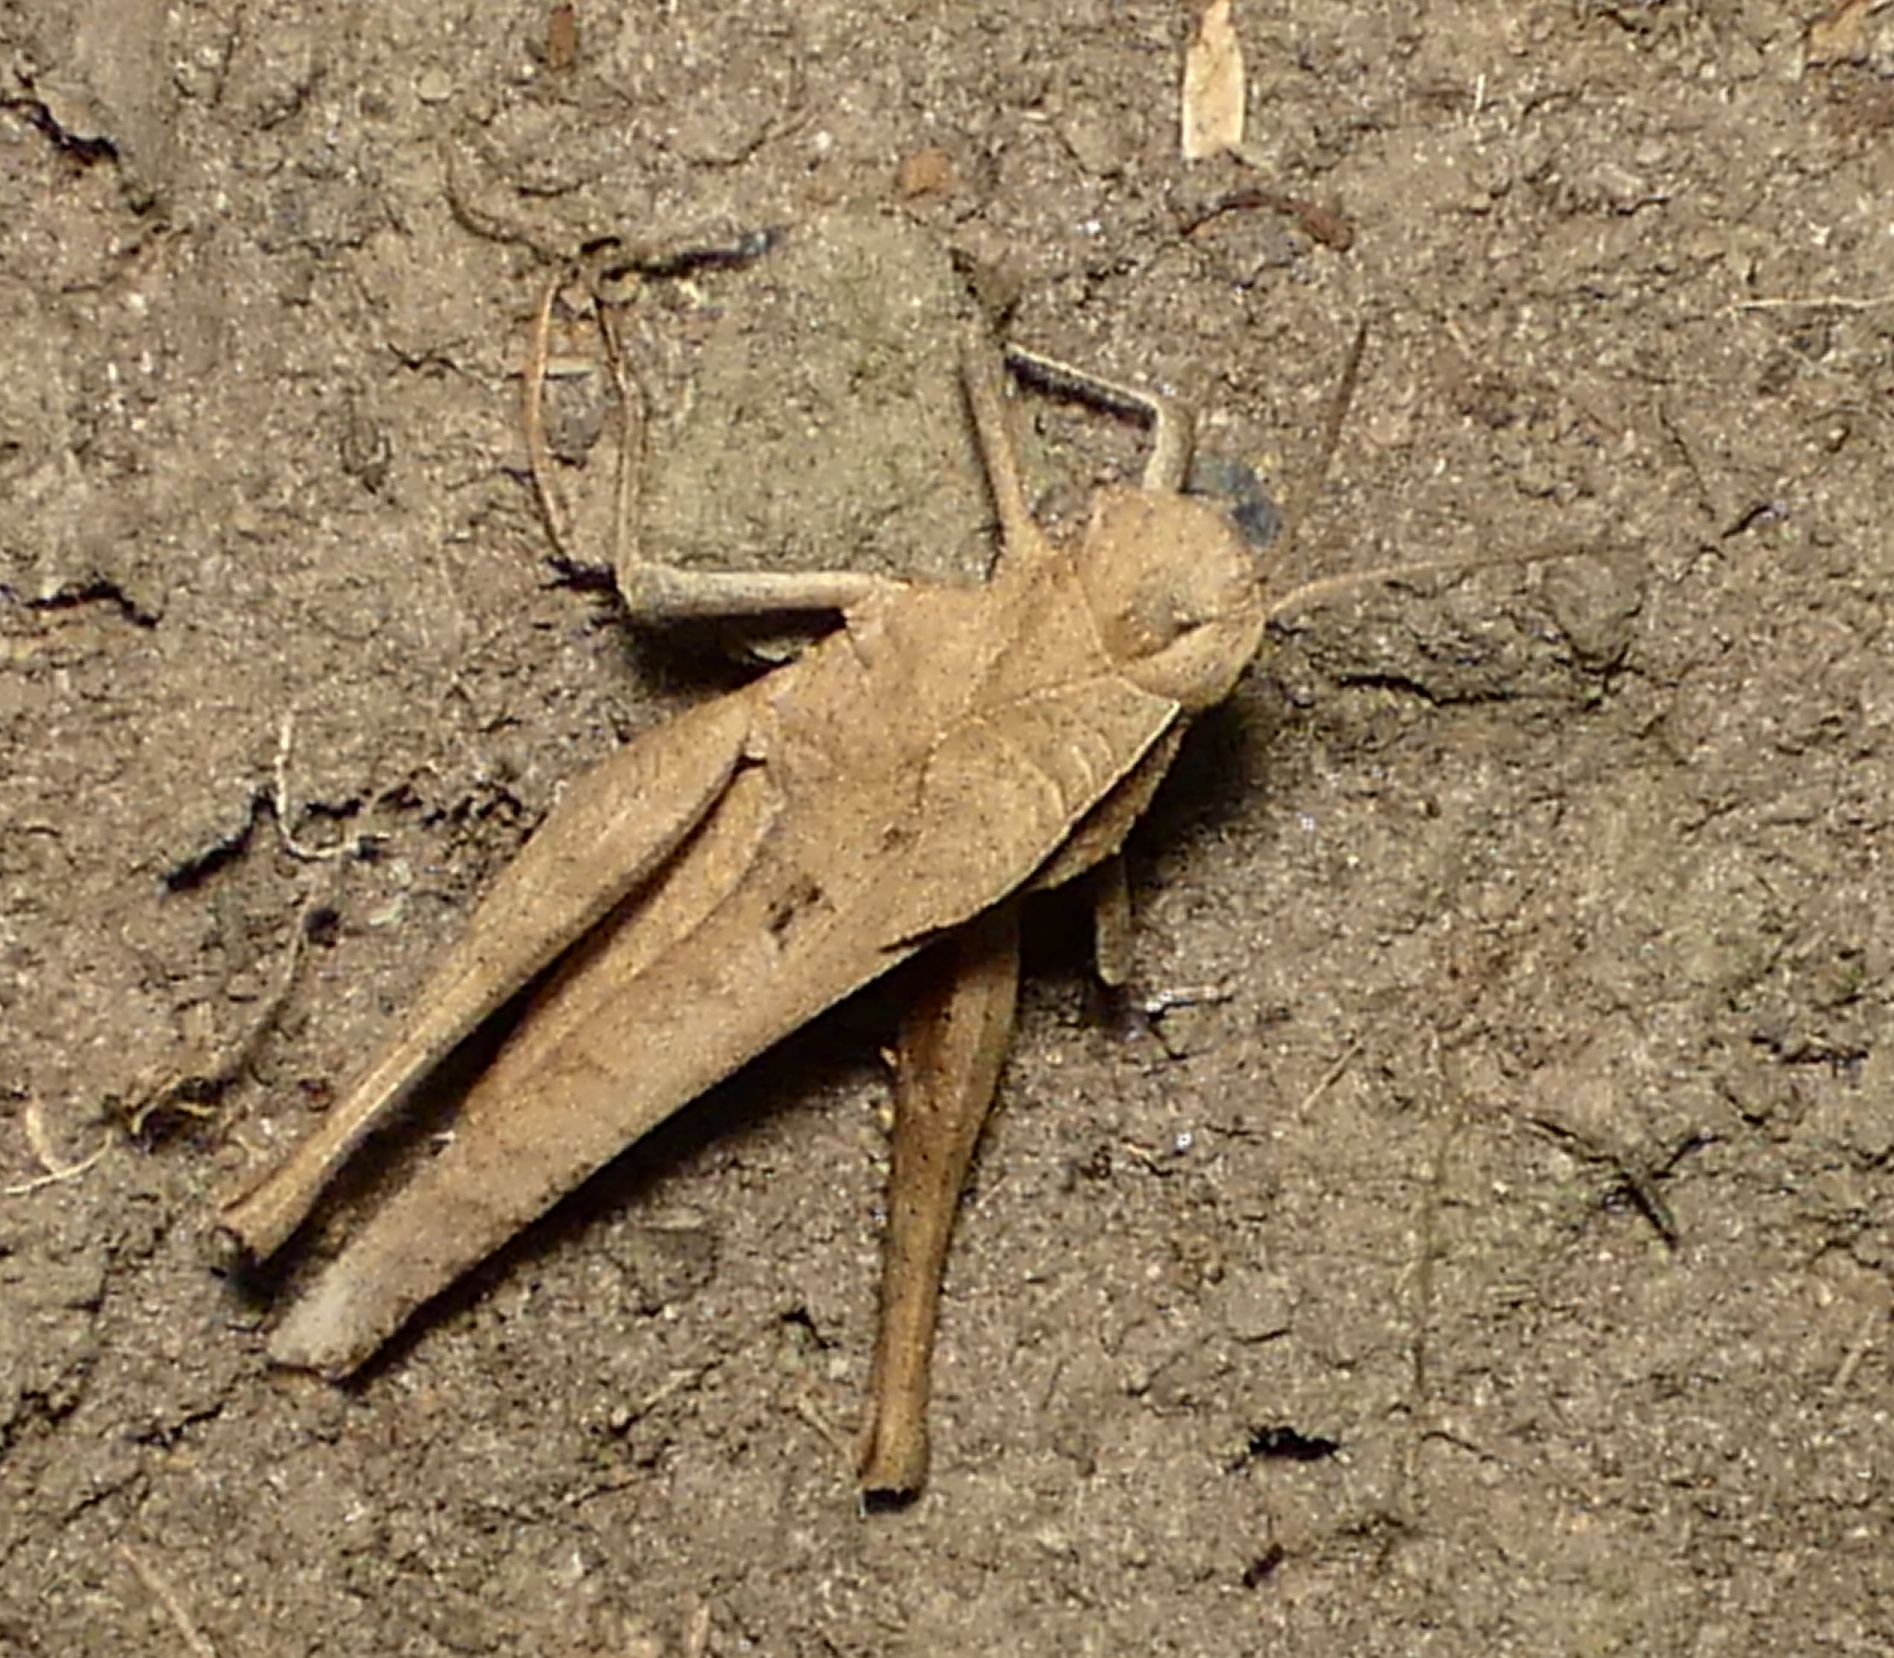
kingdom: Animalia
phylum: Arthropoda
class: Insecta
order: Orthoptera
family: Romaleidae
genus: Xyleus
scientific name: Xyleus discoideus
